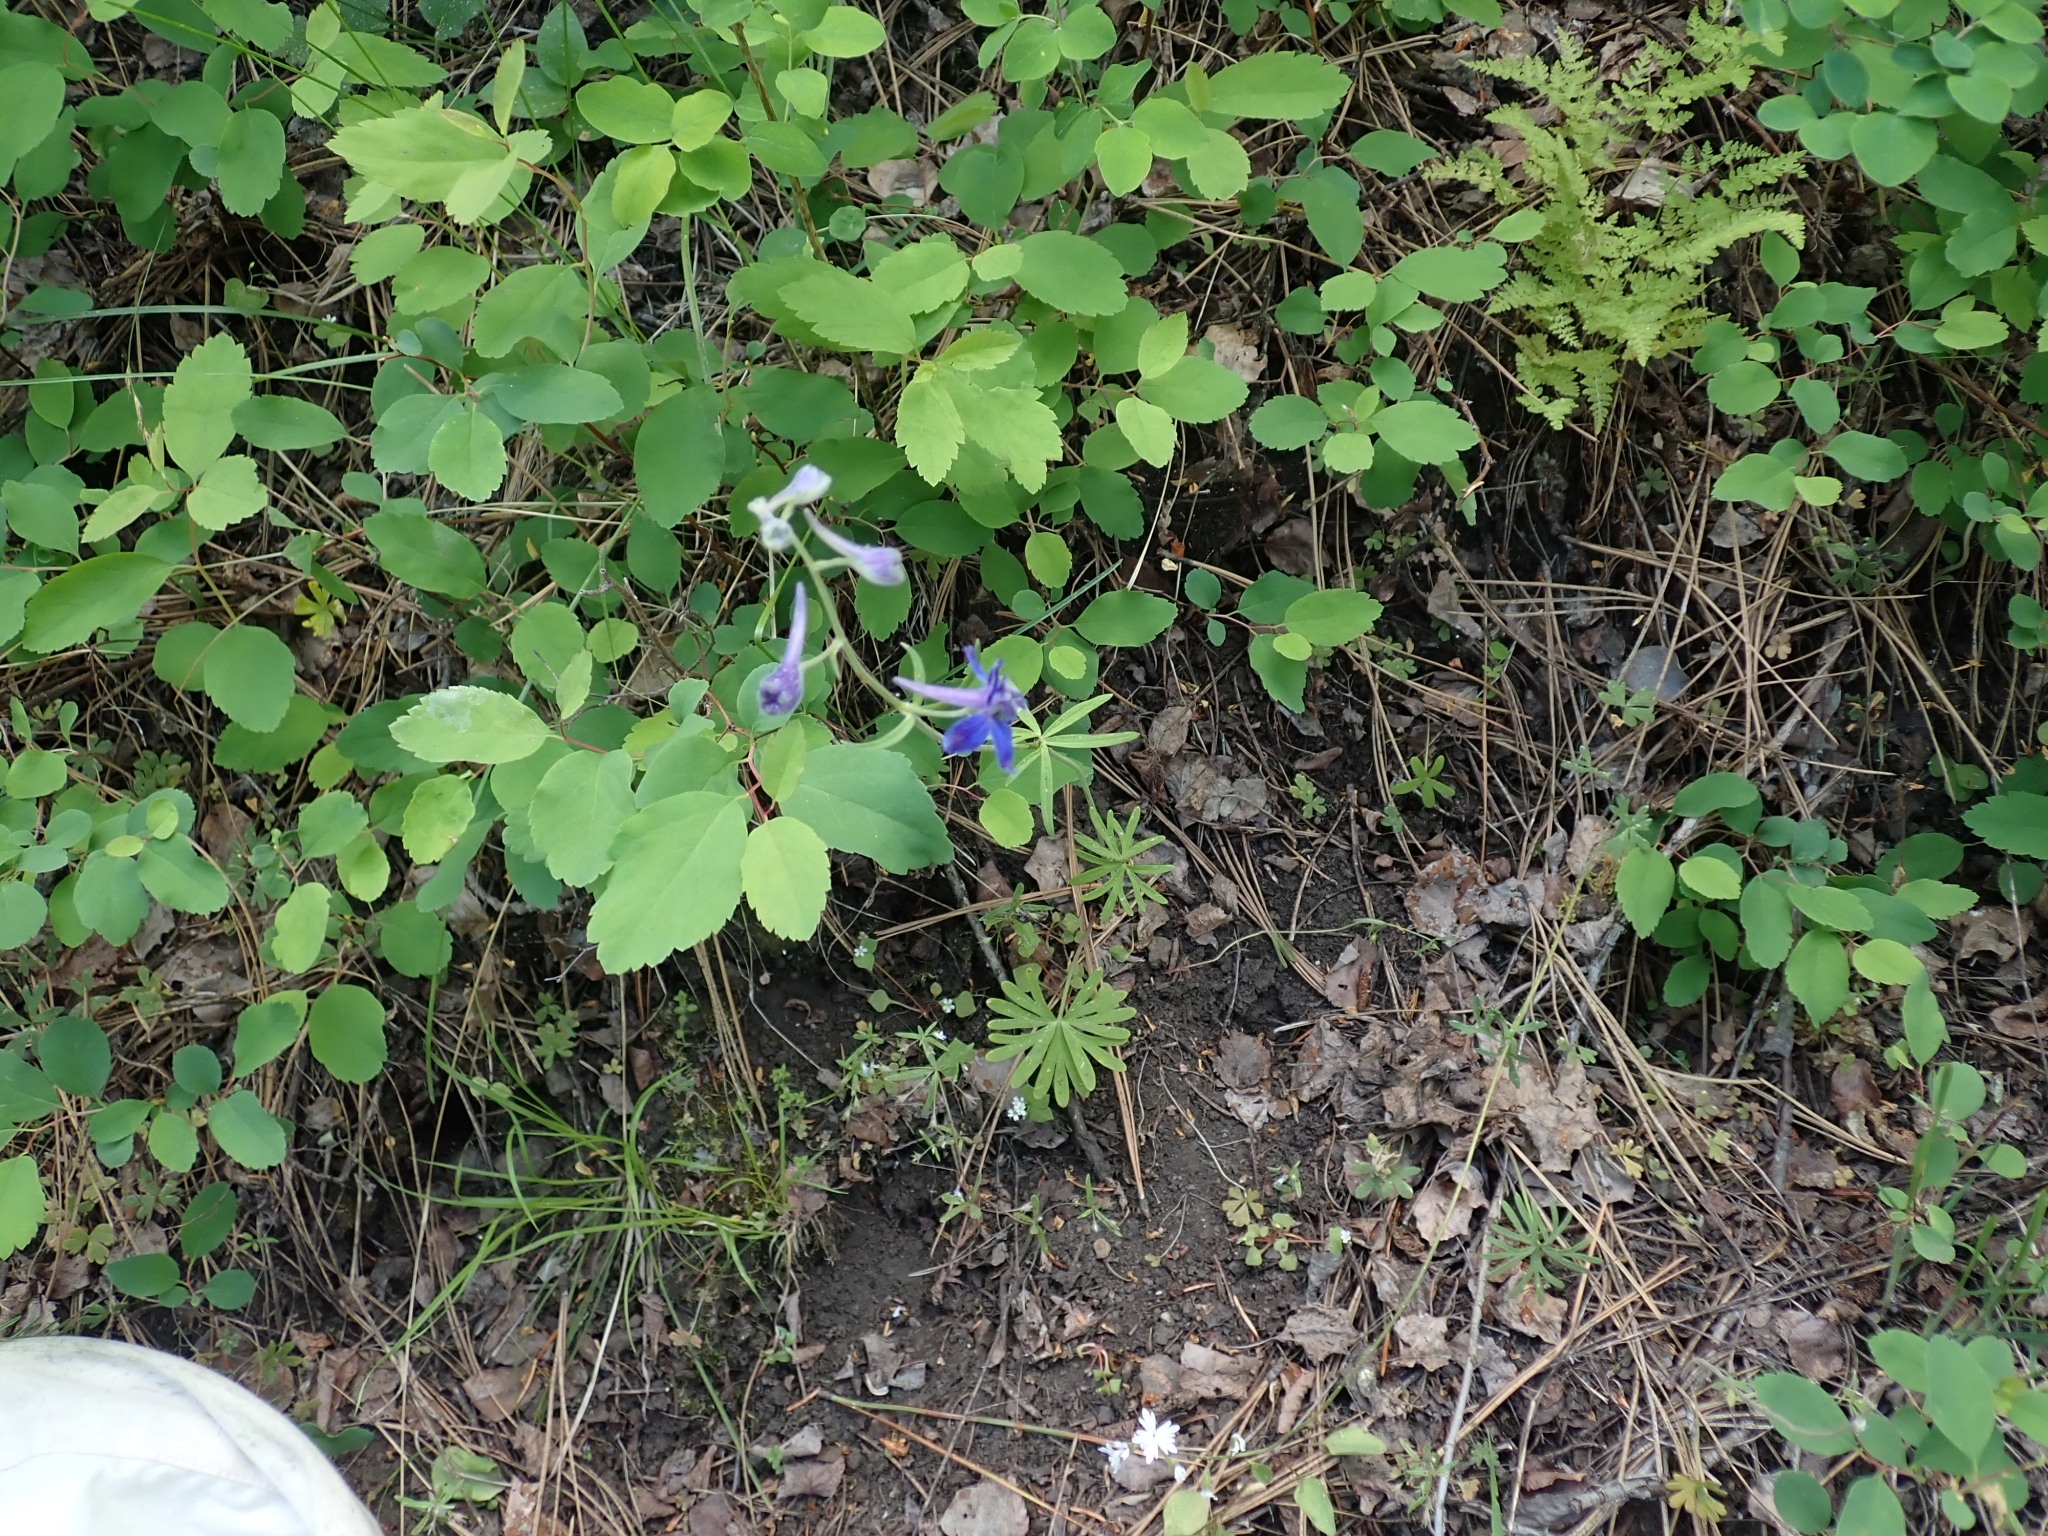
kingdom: Plantae
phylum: Tracheophyta
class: Magnoliopsida
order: Ranunculales
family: Ranunculaceae
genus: Delphinium
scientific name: Delphinium nuttallianum
